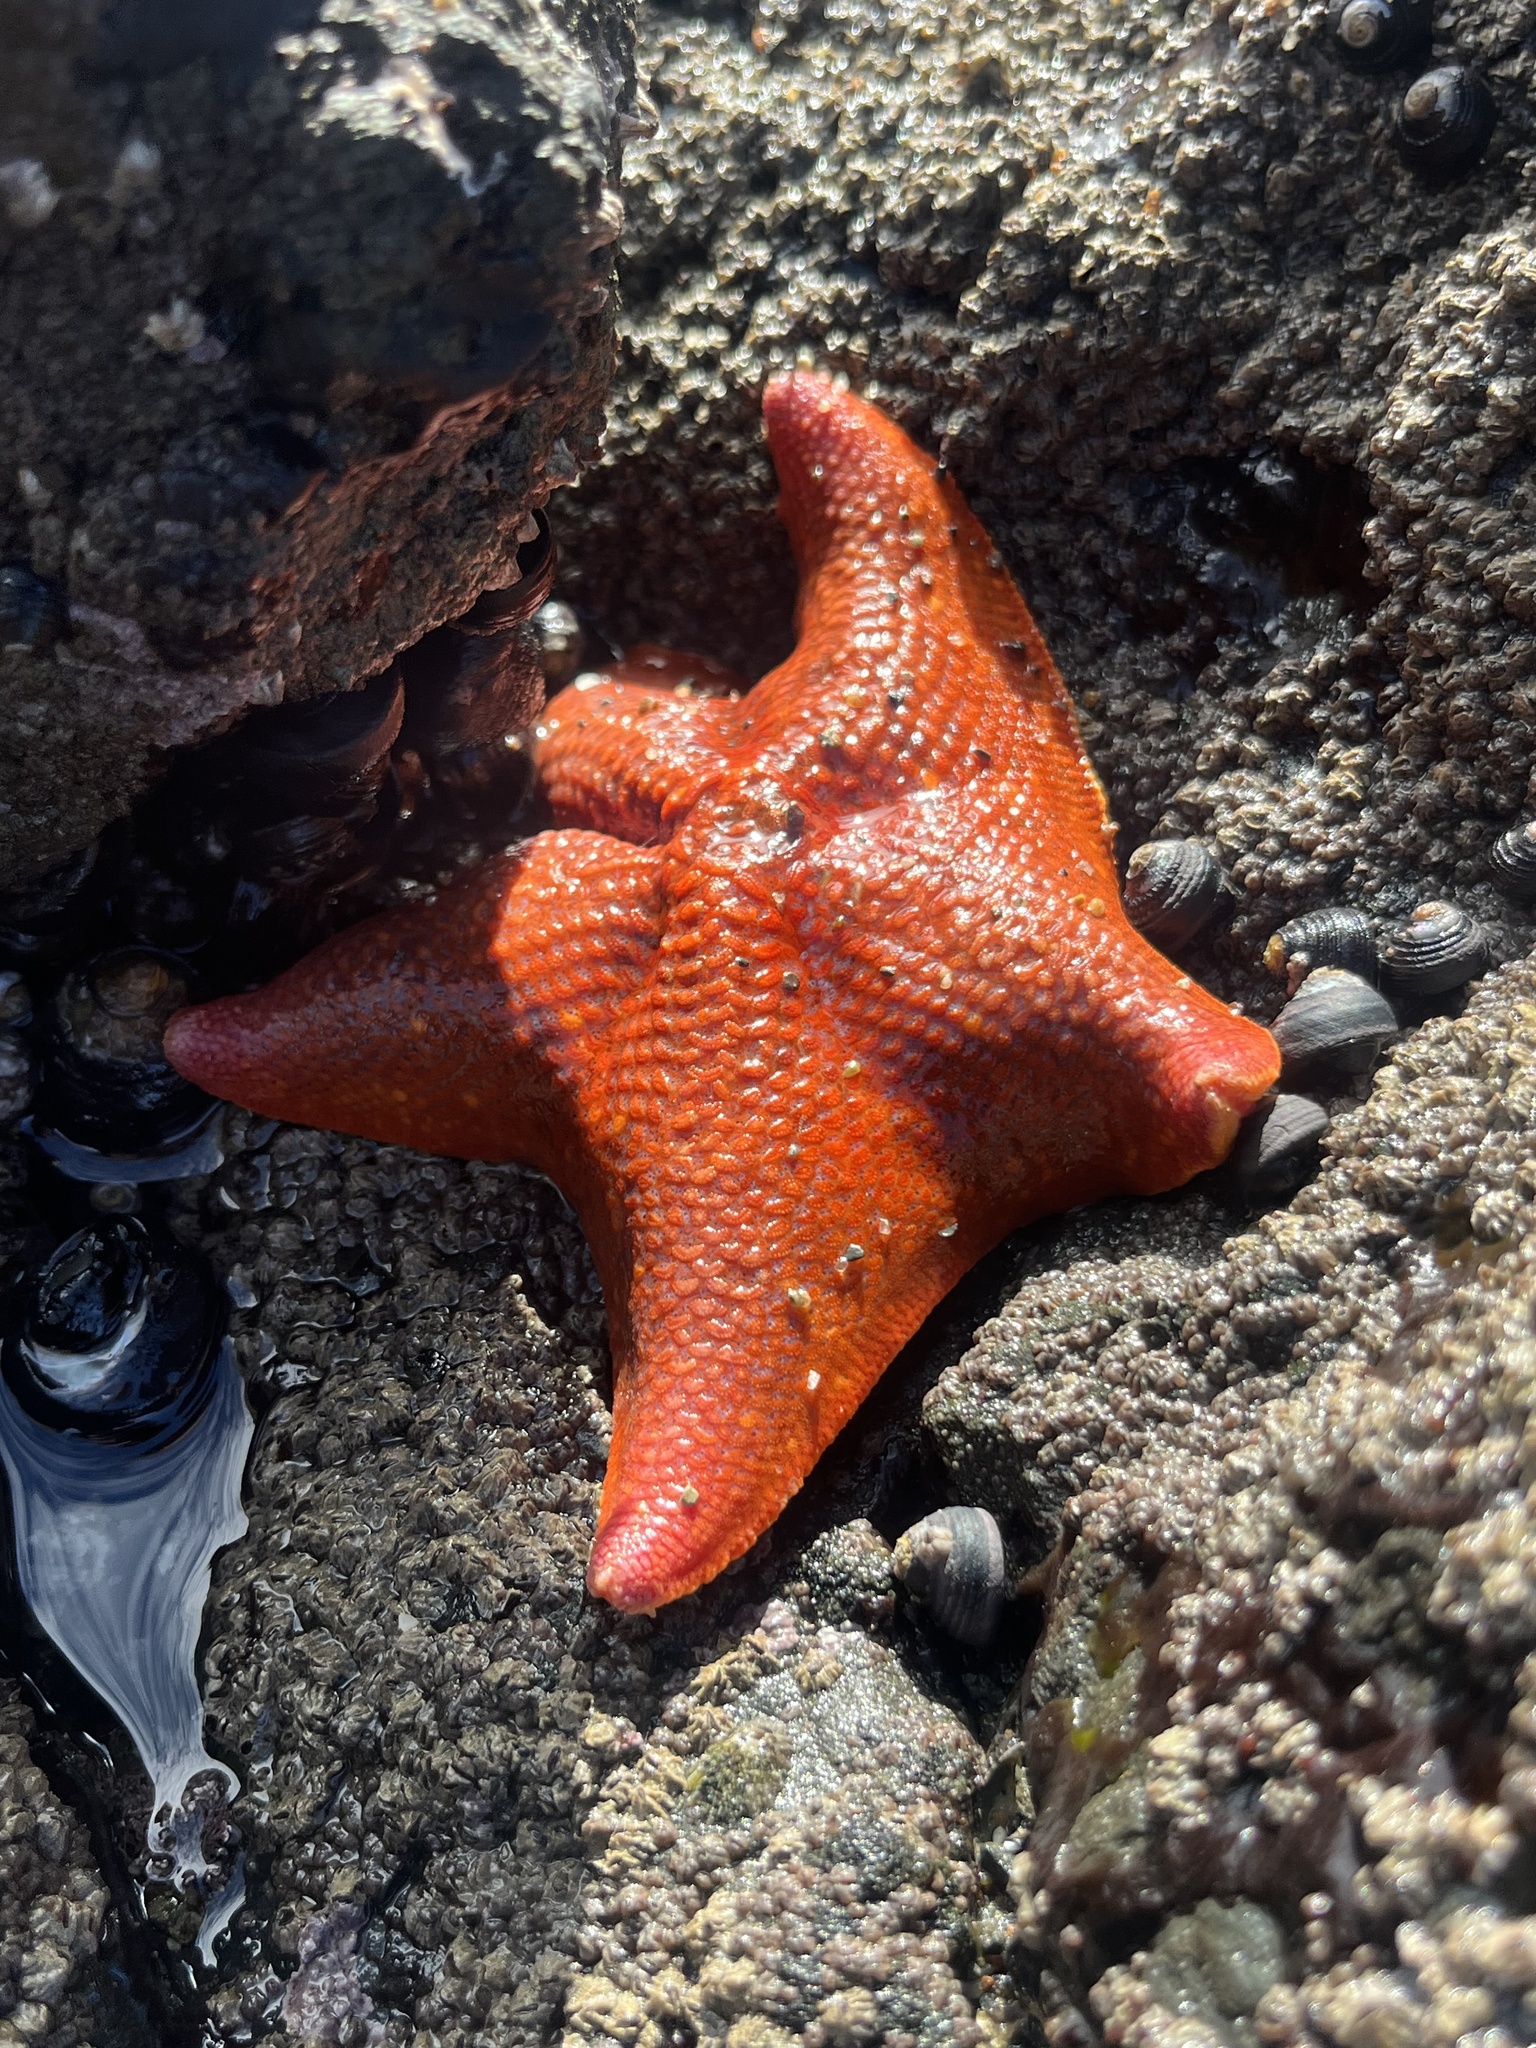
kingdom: Animalia
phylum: Echinodermata
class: Asteroidea
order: Valvatida
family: Asterinidae
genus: Patiria
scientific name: Patiria miniata
